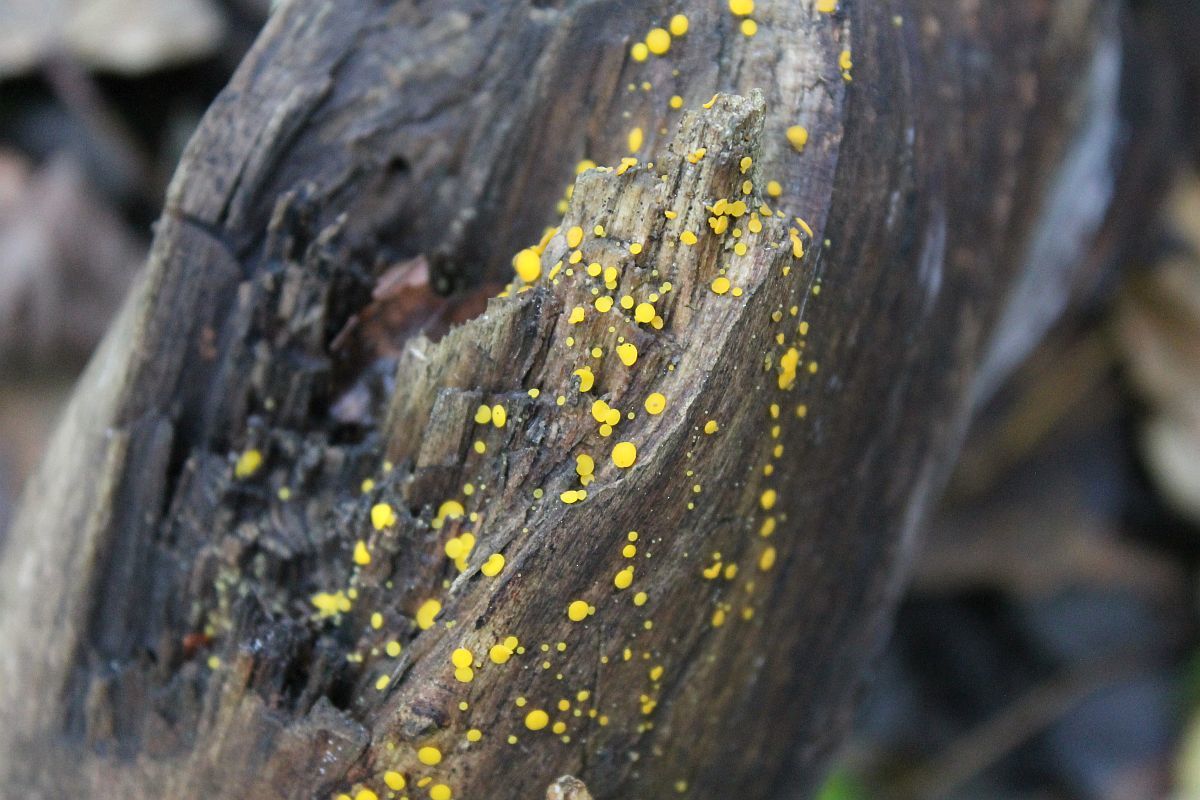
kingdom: Fungi
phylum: Basidiomycota
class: Dacrymycetes
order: Dacrymycetales
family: Dacrymycetaceae
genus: Dacrymyces
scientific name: Dacrymyces stillatus
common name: Common jelly spot
